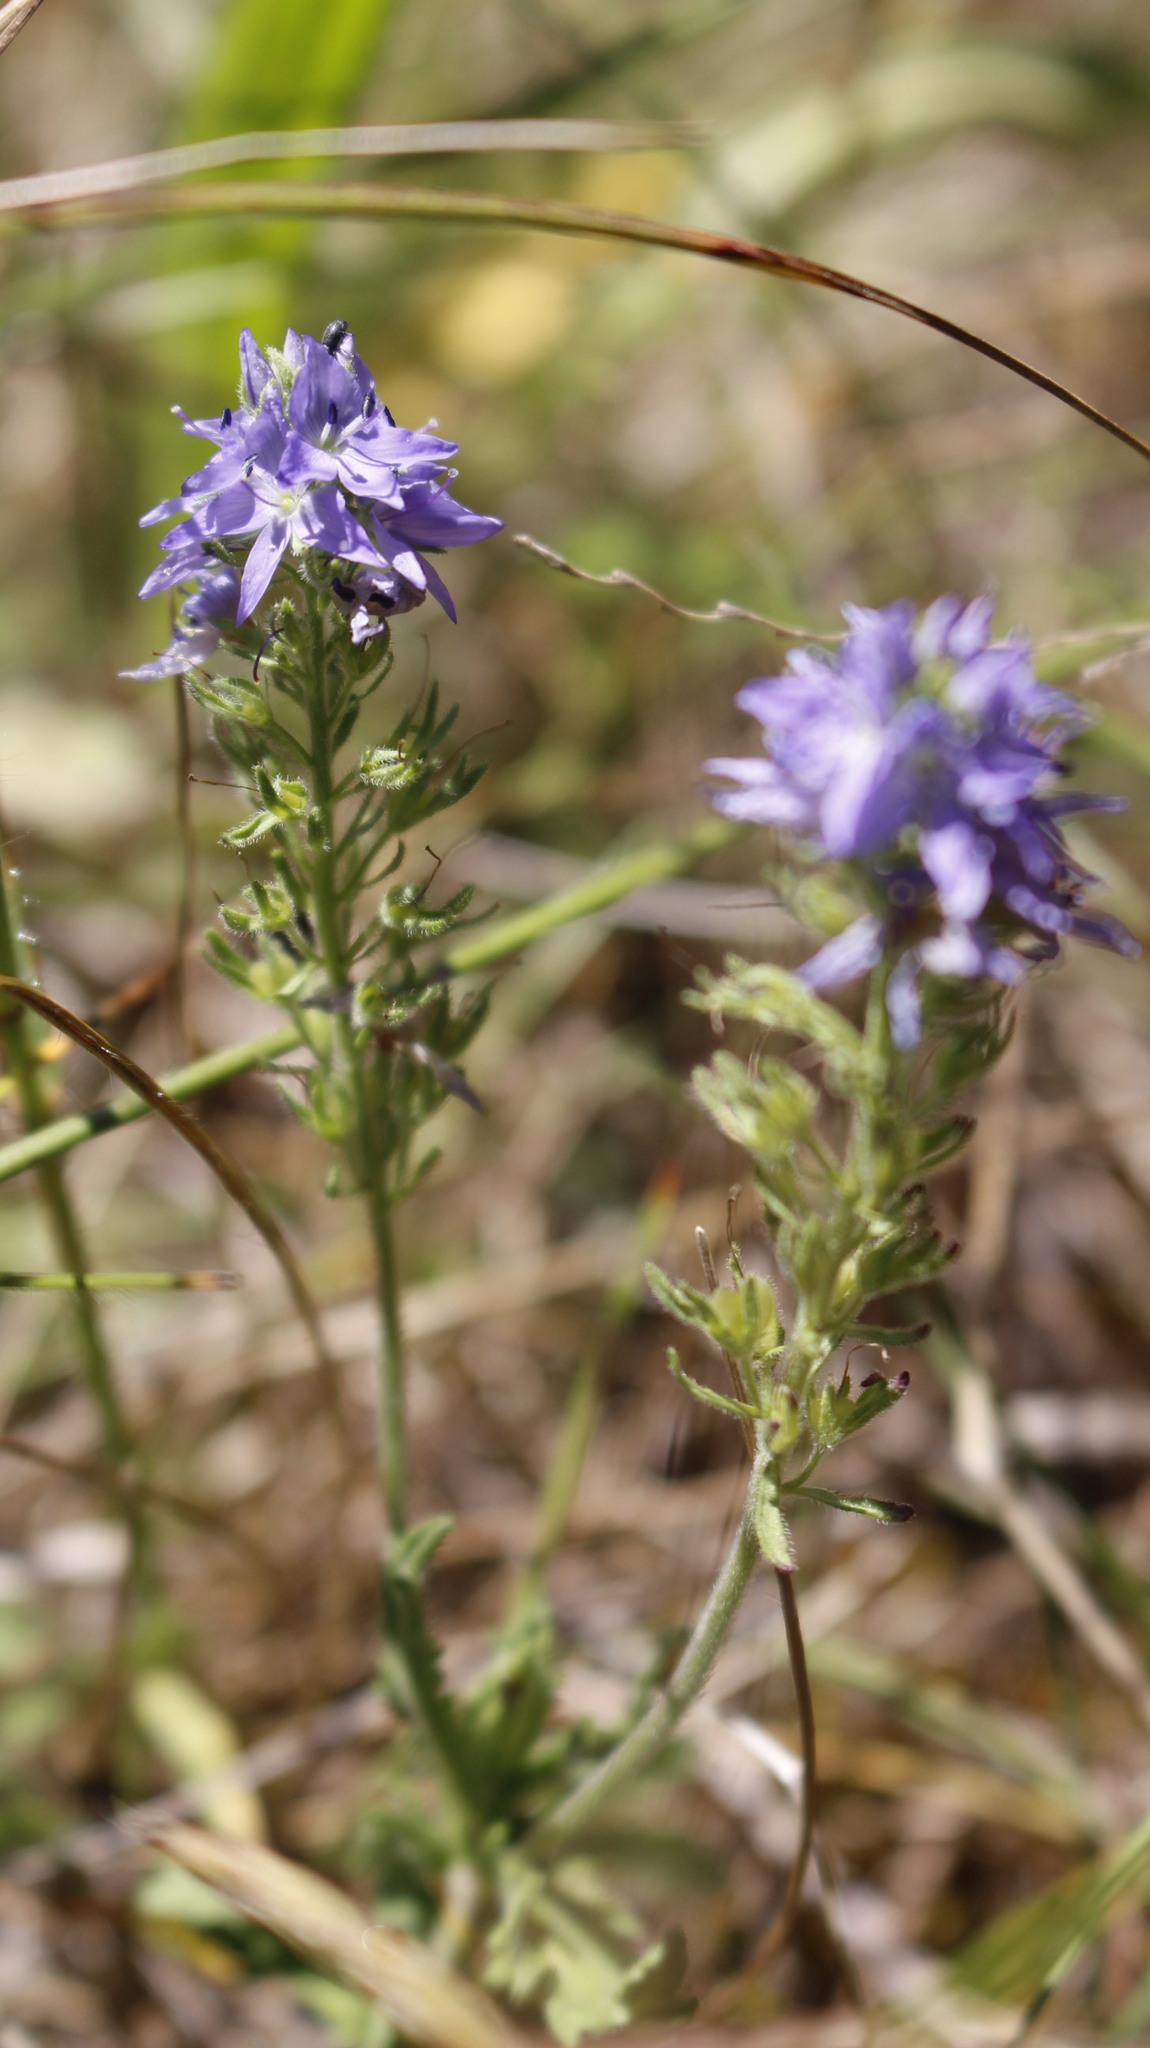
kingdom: Plantae
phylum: Tracheophyta
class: Magnoliopsida
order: Lamiales
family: Plantaginaceae
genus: Veronica
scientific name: Veronica orsiniana
